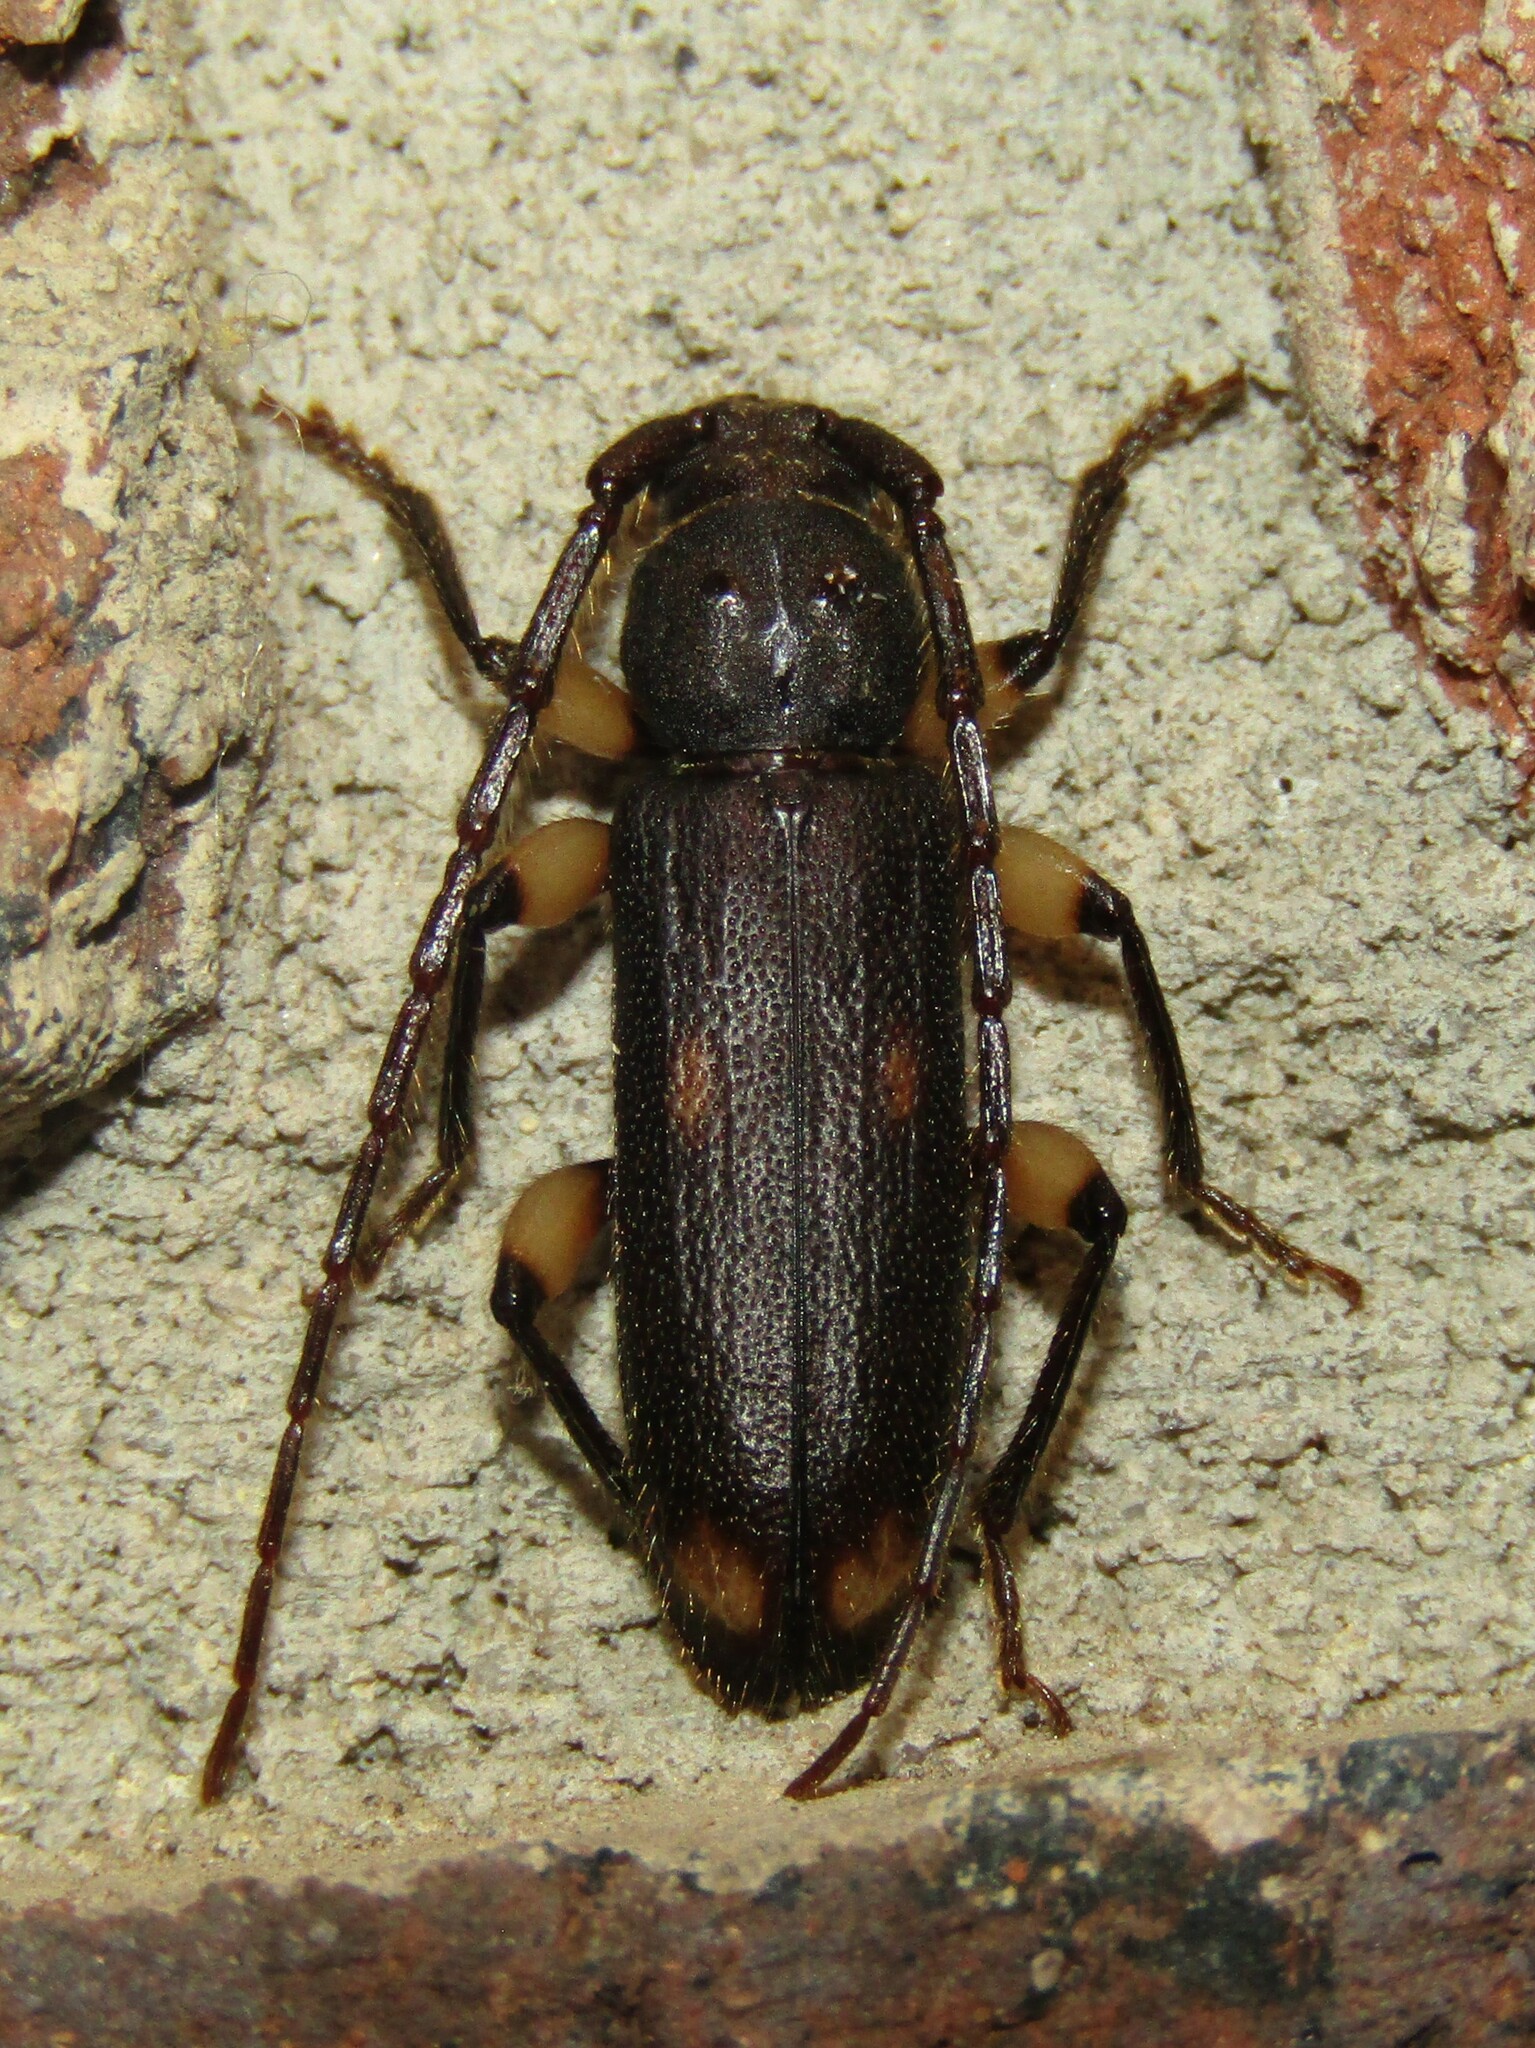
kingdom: Animalia
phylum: Arthropoda
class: Insecta
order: Coleoptera
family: Cerambycidae
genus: Tylonotus
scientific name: Tylonotus bimaculatus
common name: Ash and privet borer
